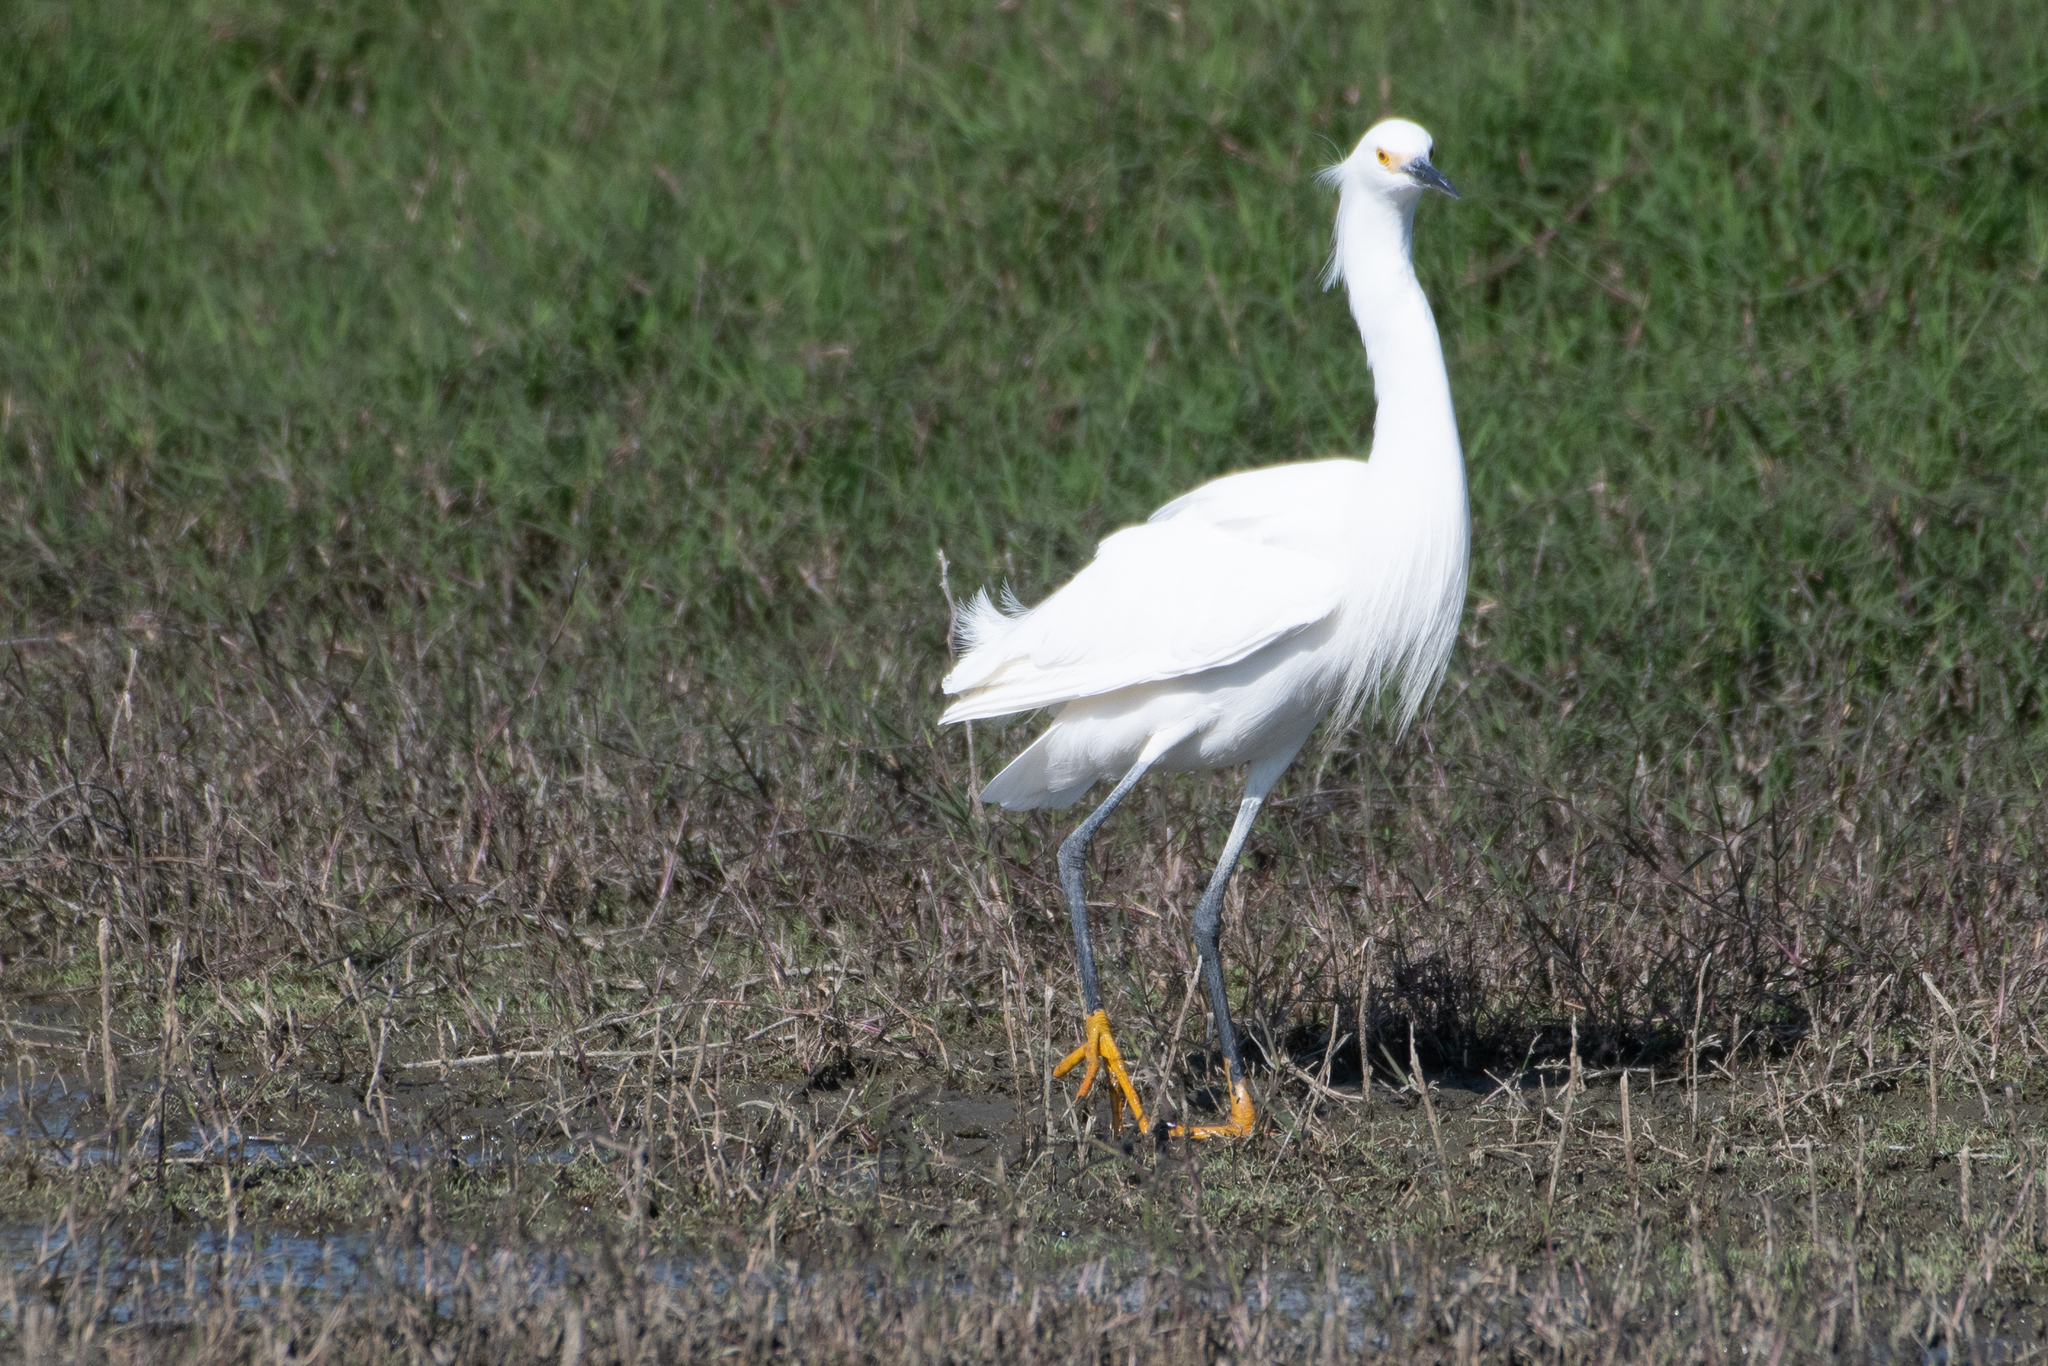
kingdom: Animalia
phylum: Chordata
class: Aves
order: Pelecaniformes
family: Ardeidae
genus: Egretta
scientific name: Egretta thula
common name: Snowy egret
